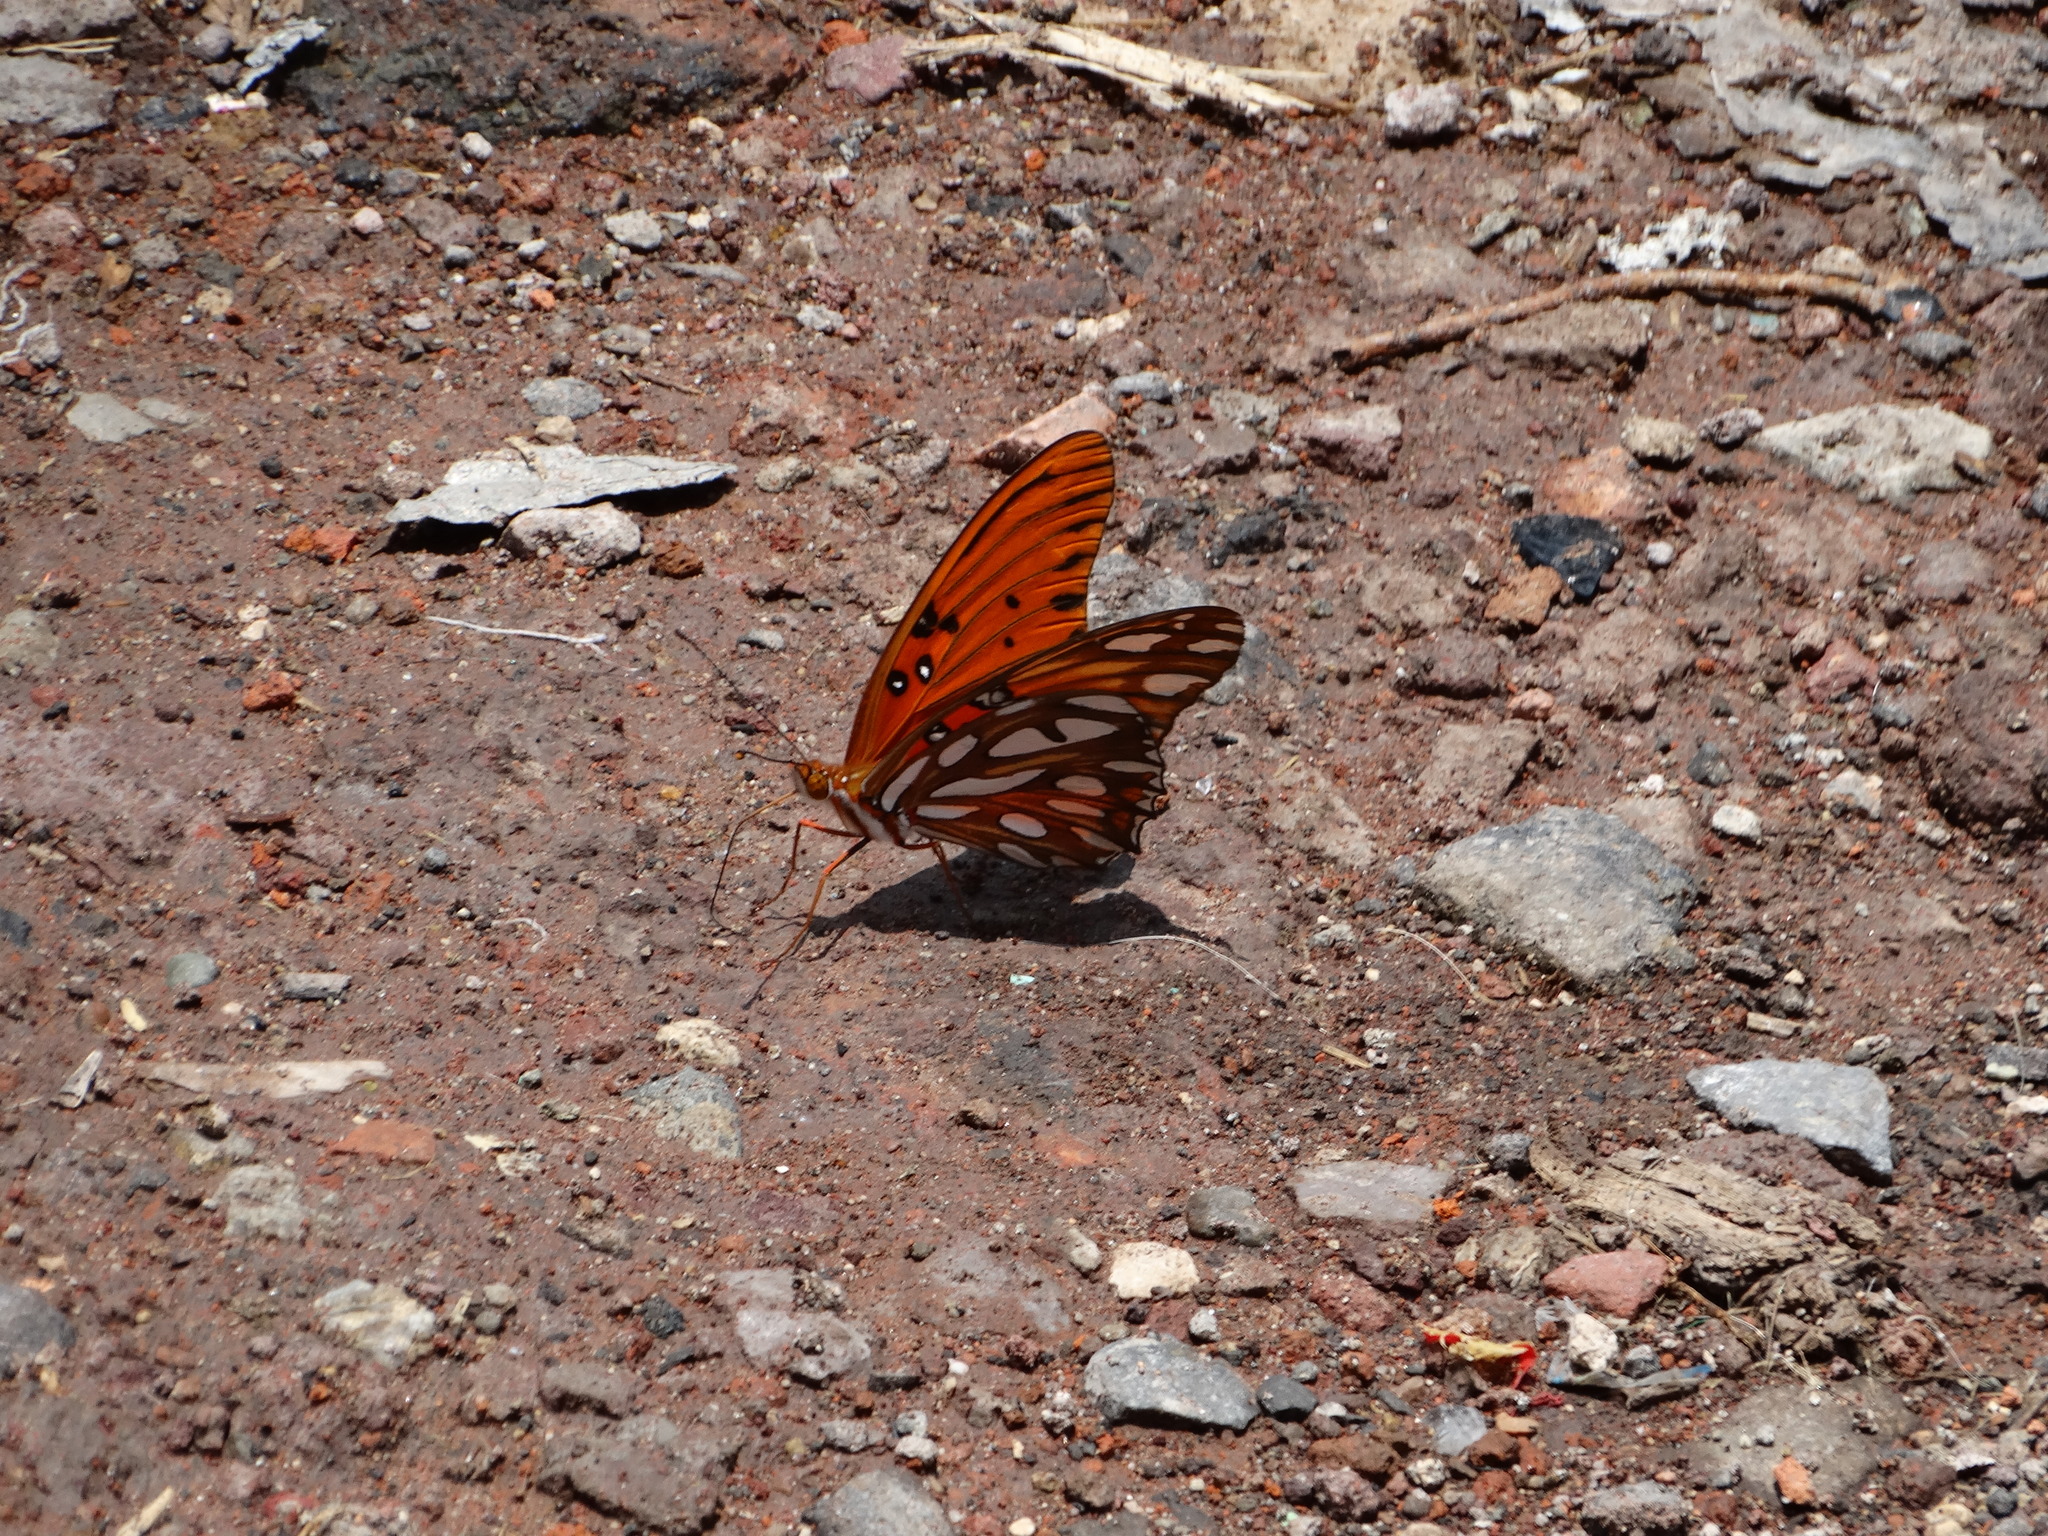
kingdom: Animalia
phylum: Arthropoda
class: Insecta
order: Lepidoptera
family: Nymphalidae
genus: Dione
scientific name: Dione vanillae
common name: Gulf fritillary
